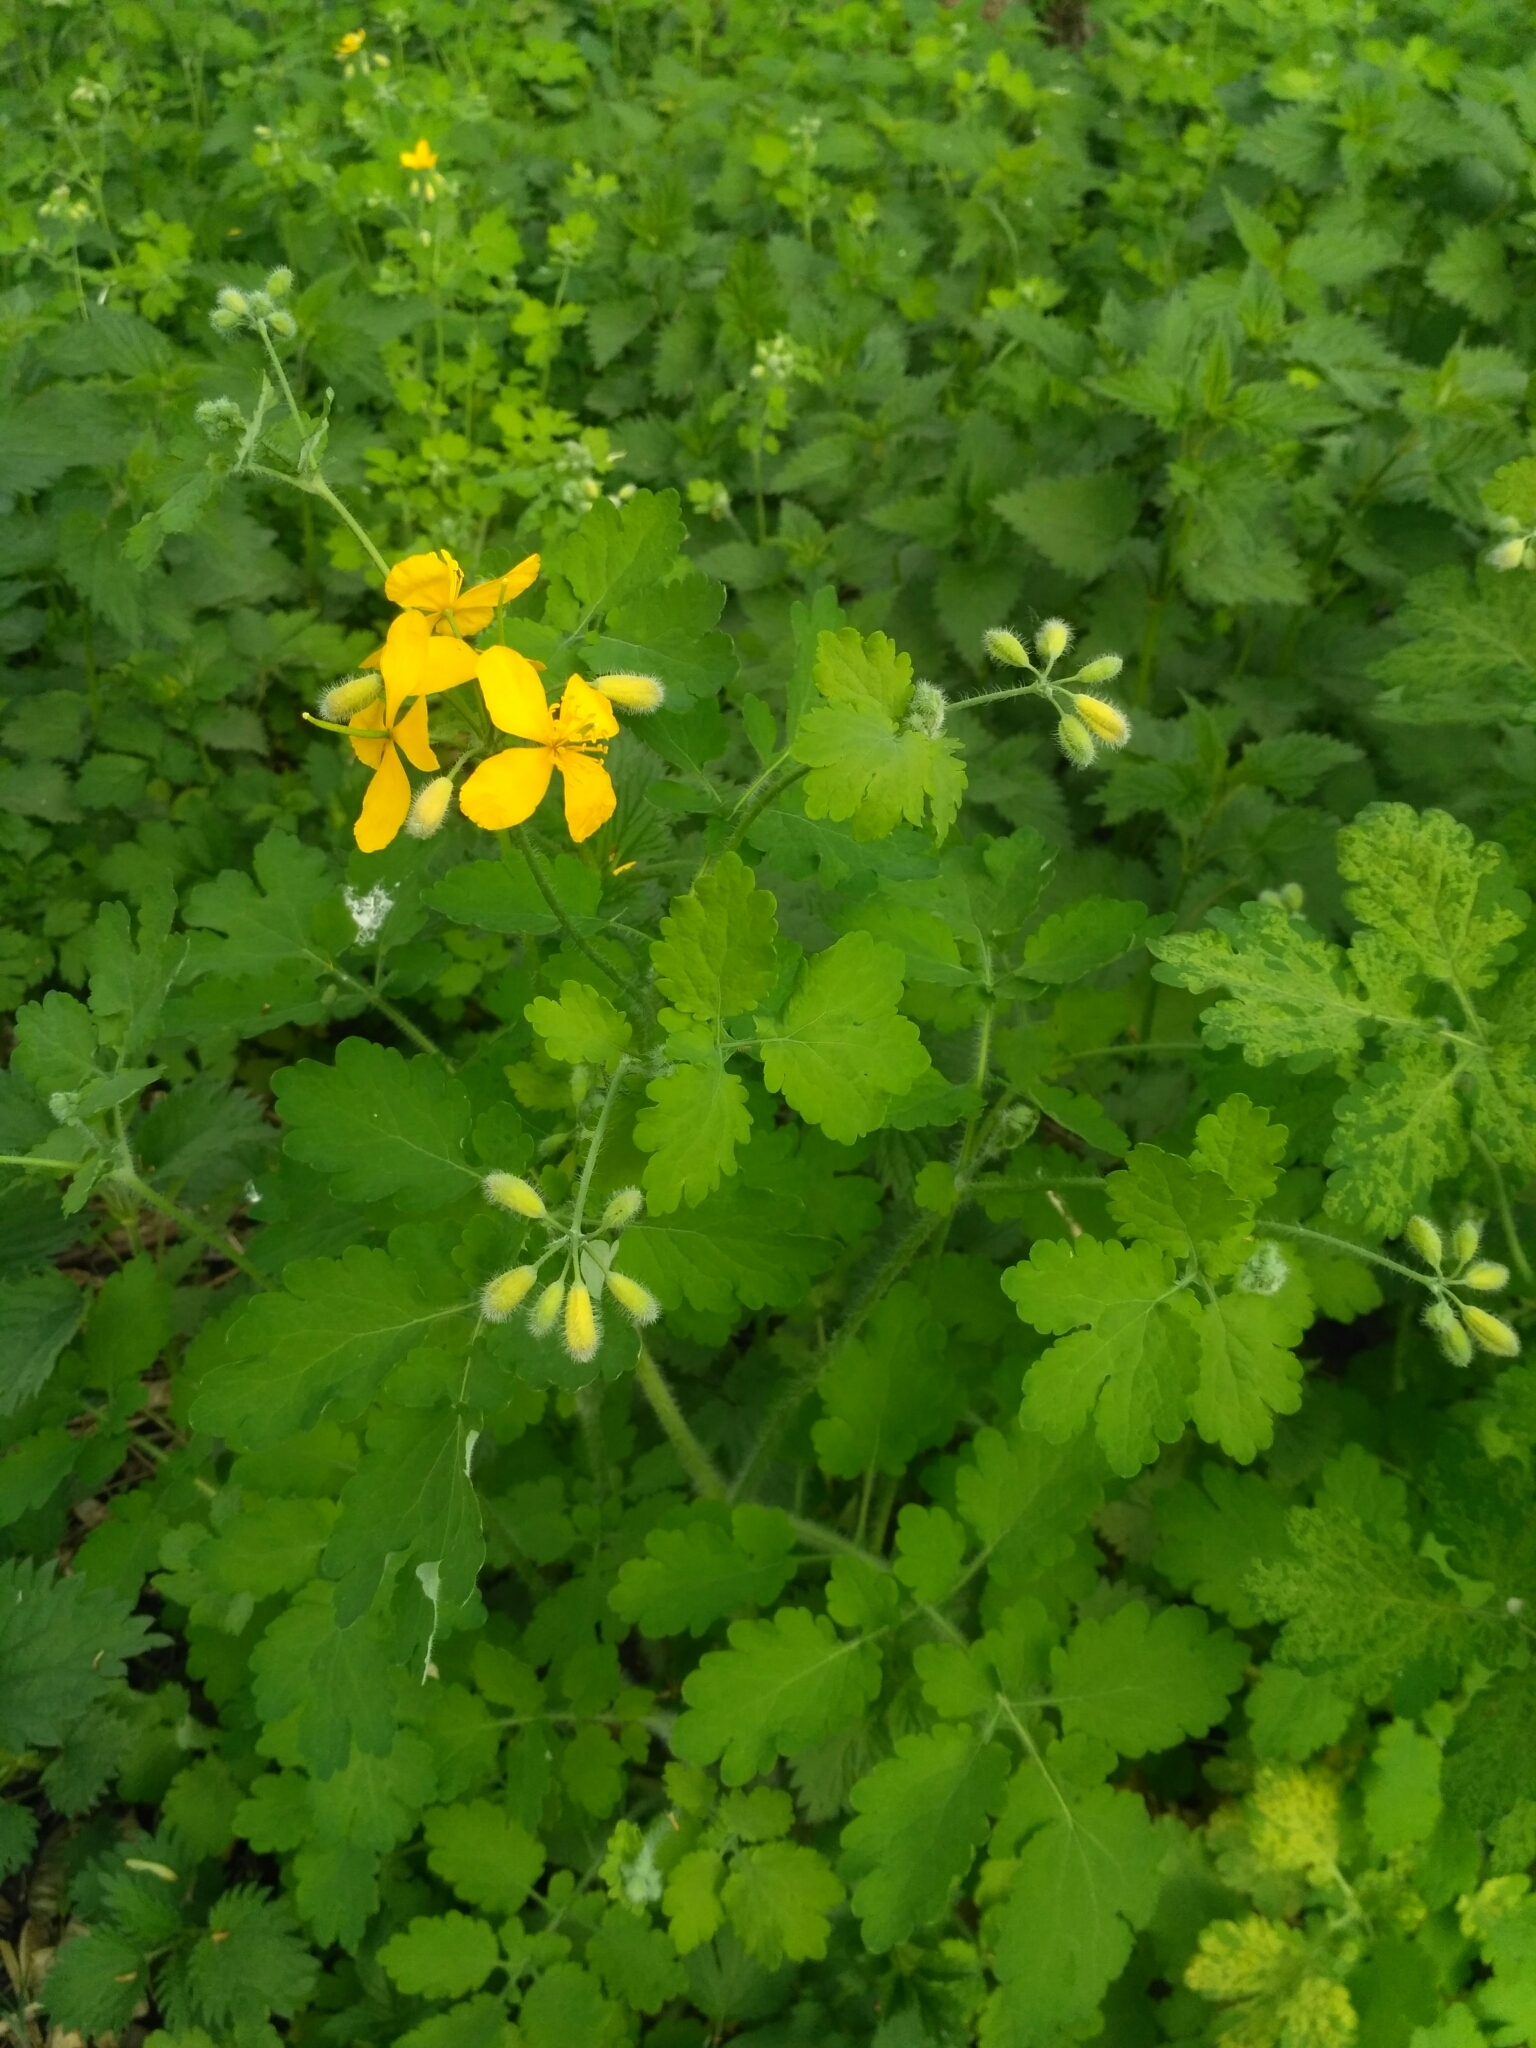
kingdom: Plantae
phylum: Tracheophyta
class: Magnoliopsida
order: Ranunculales
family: Papaveraceae
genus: Chelidonium
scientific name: Chelidonium majus
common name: Greater celandine
